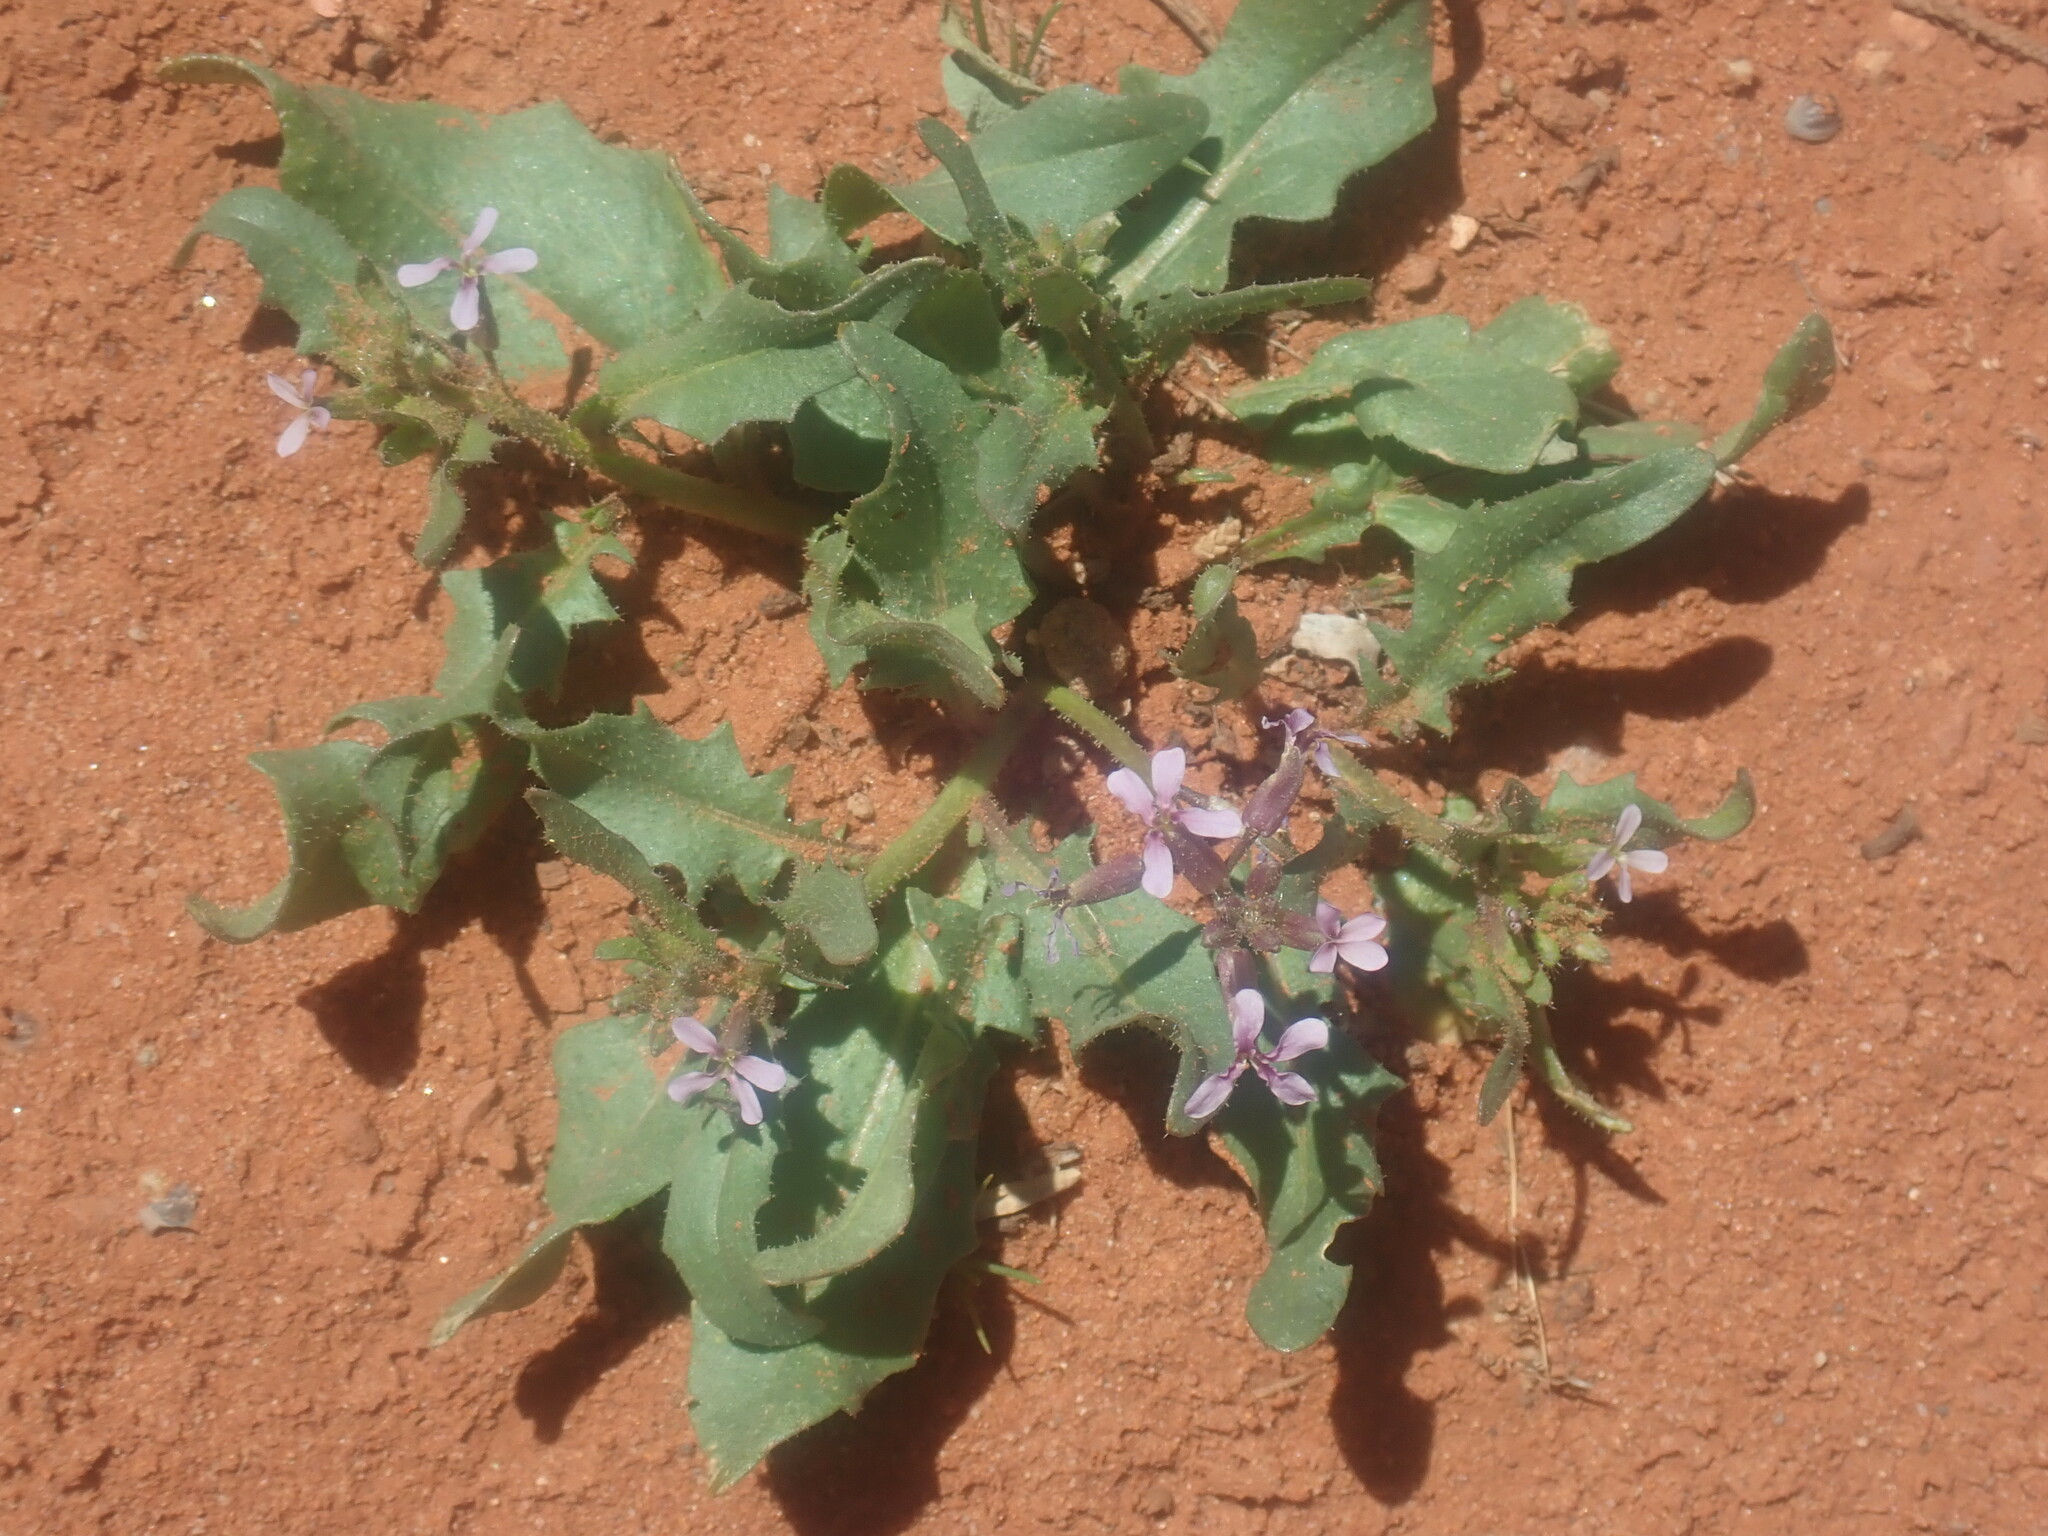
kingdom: Plantae
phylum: Tracheophyta
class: Magnoliopsida
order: Brassicales
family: Brassicaceae
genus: Chorispora
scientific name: Chorispora tenella
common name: Crossflower
